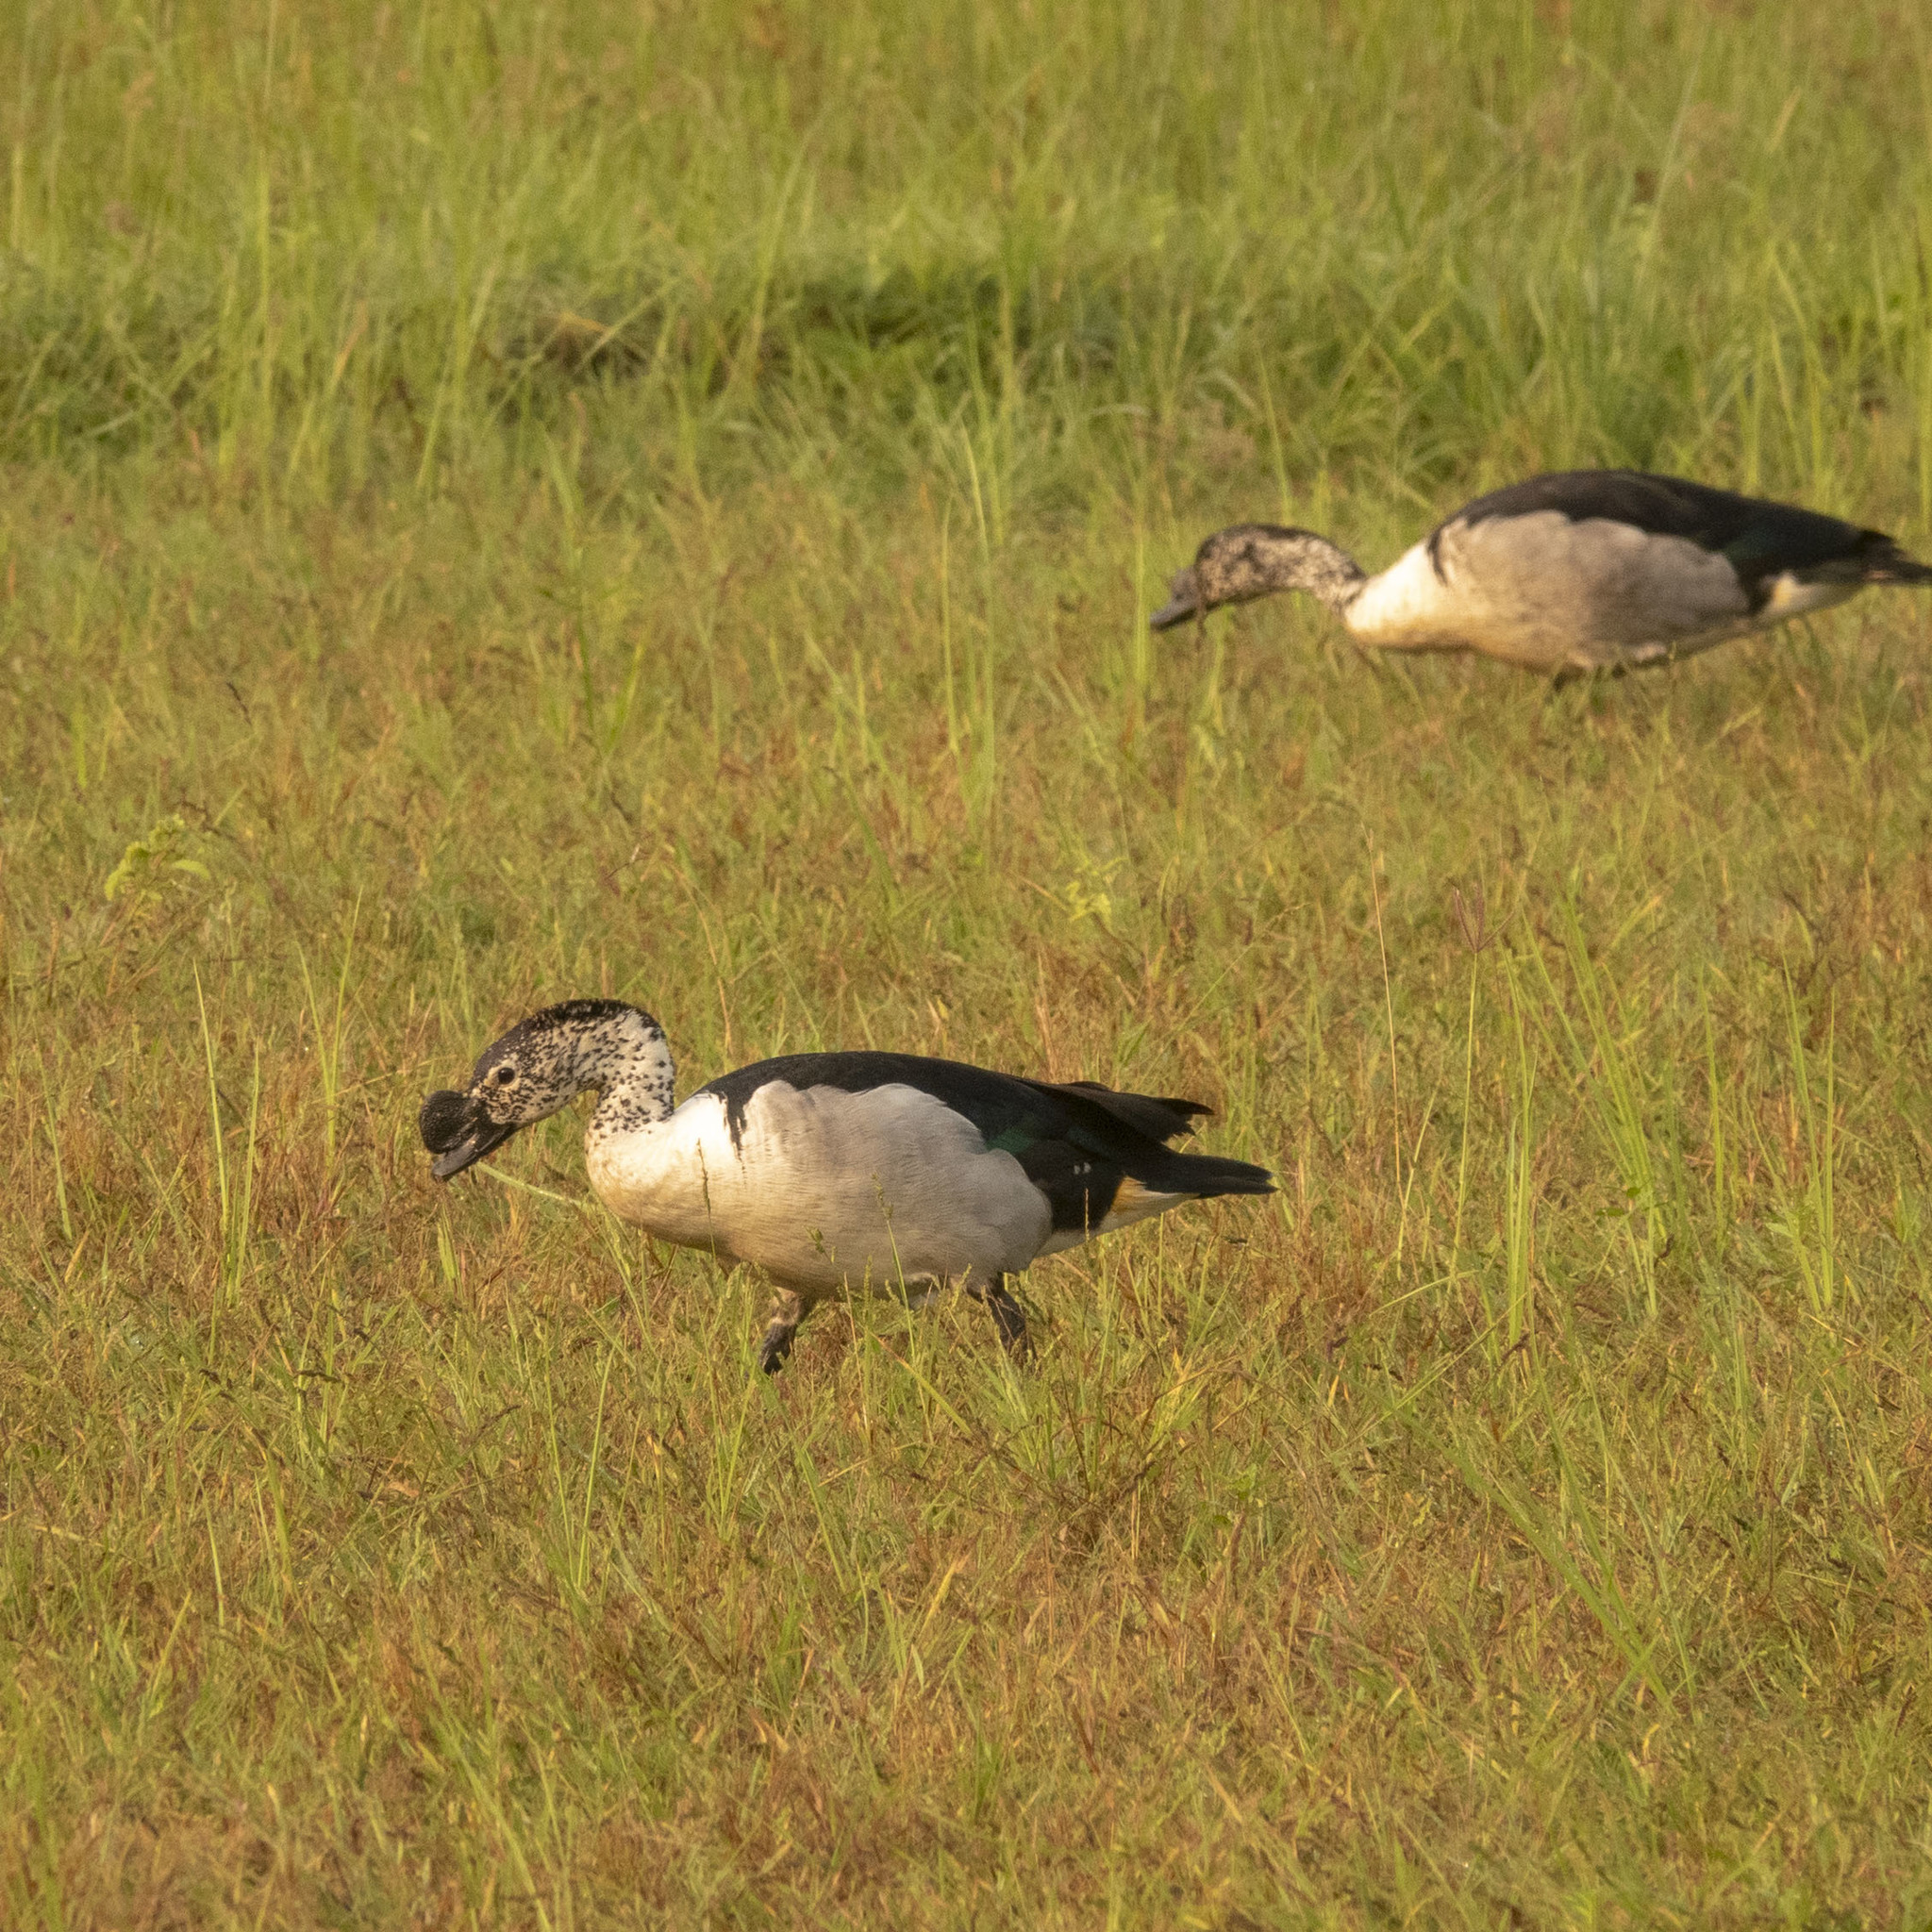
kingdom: Animalia
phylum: Chordata
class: Aves
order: Anseriformes
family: Anatidae
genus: Sarkidiornis
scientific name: Sarkidiornis melanotos
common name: Comb duck
